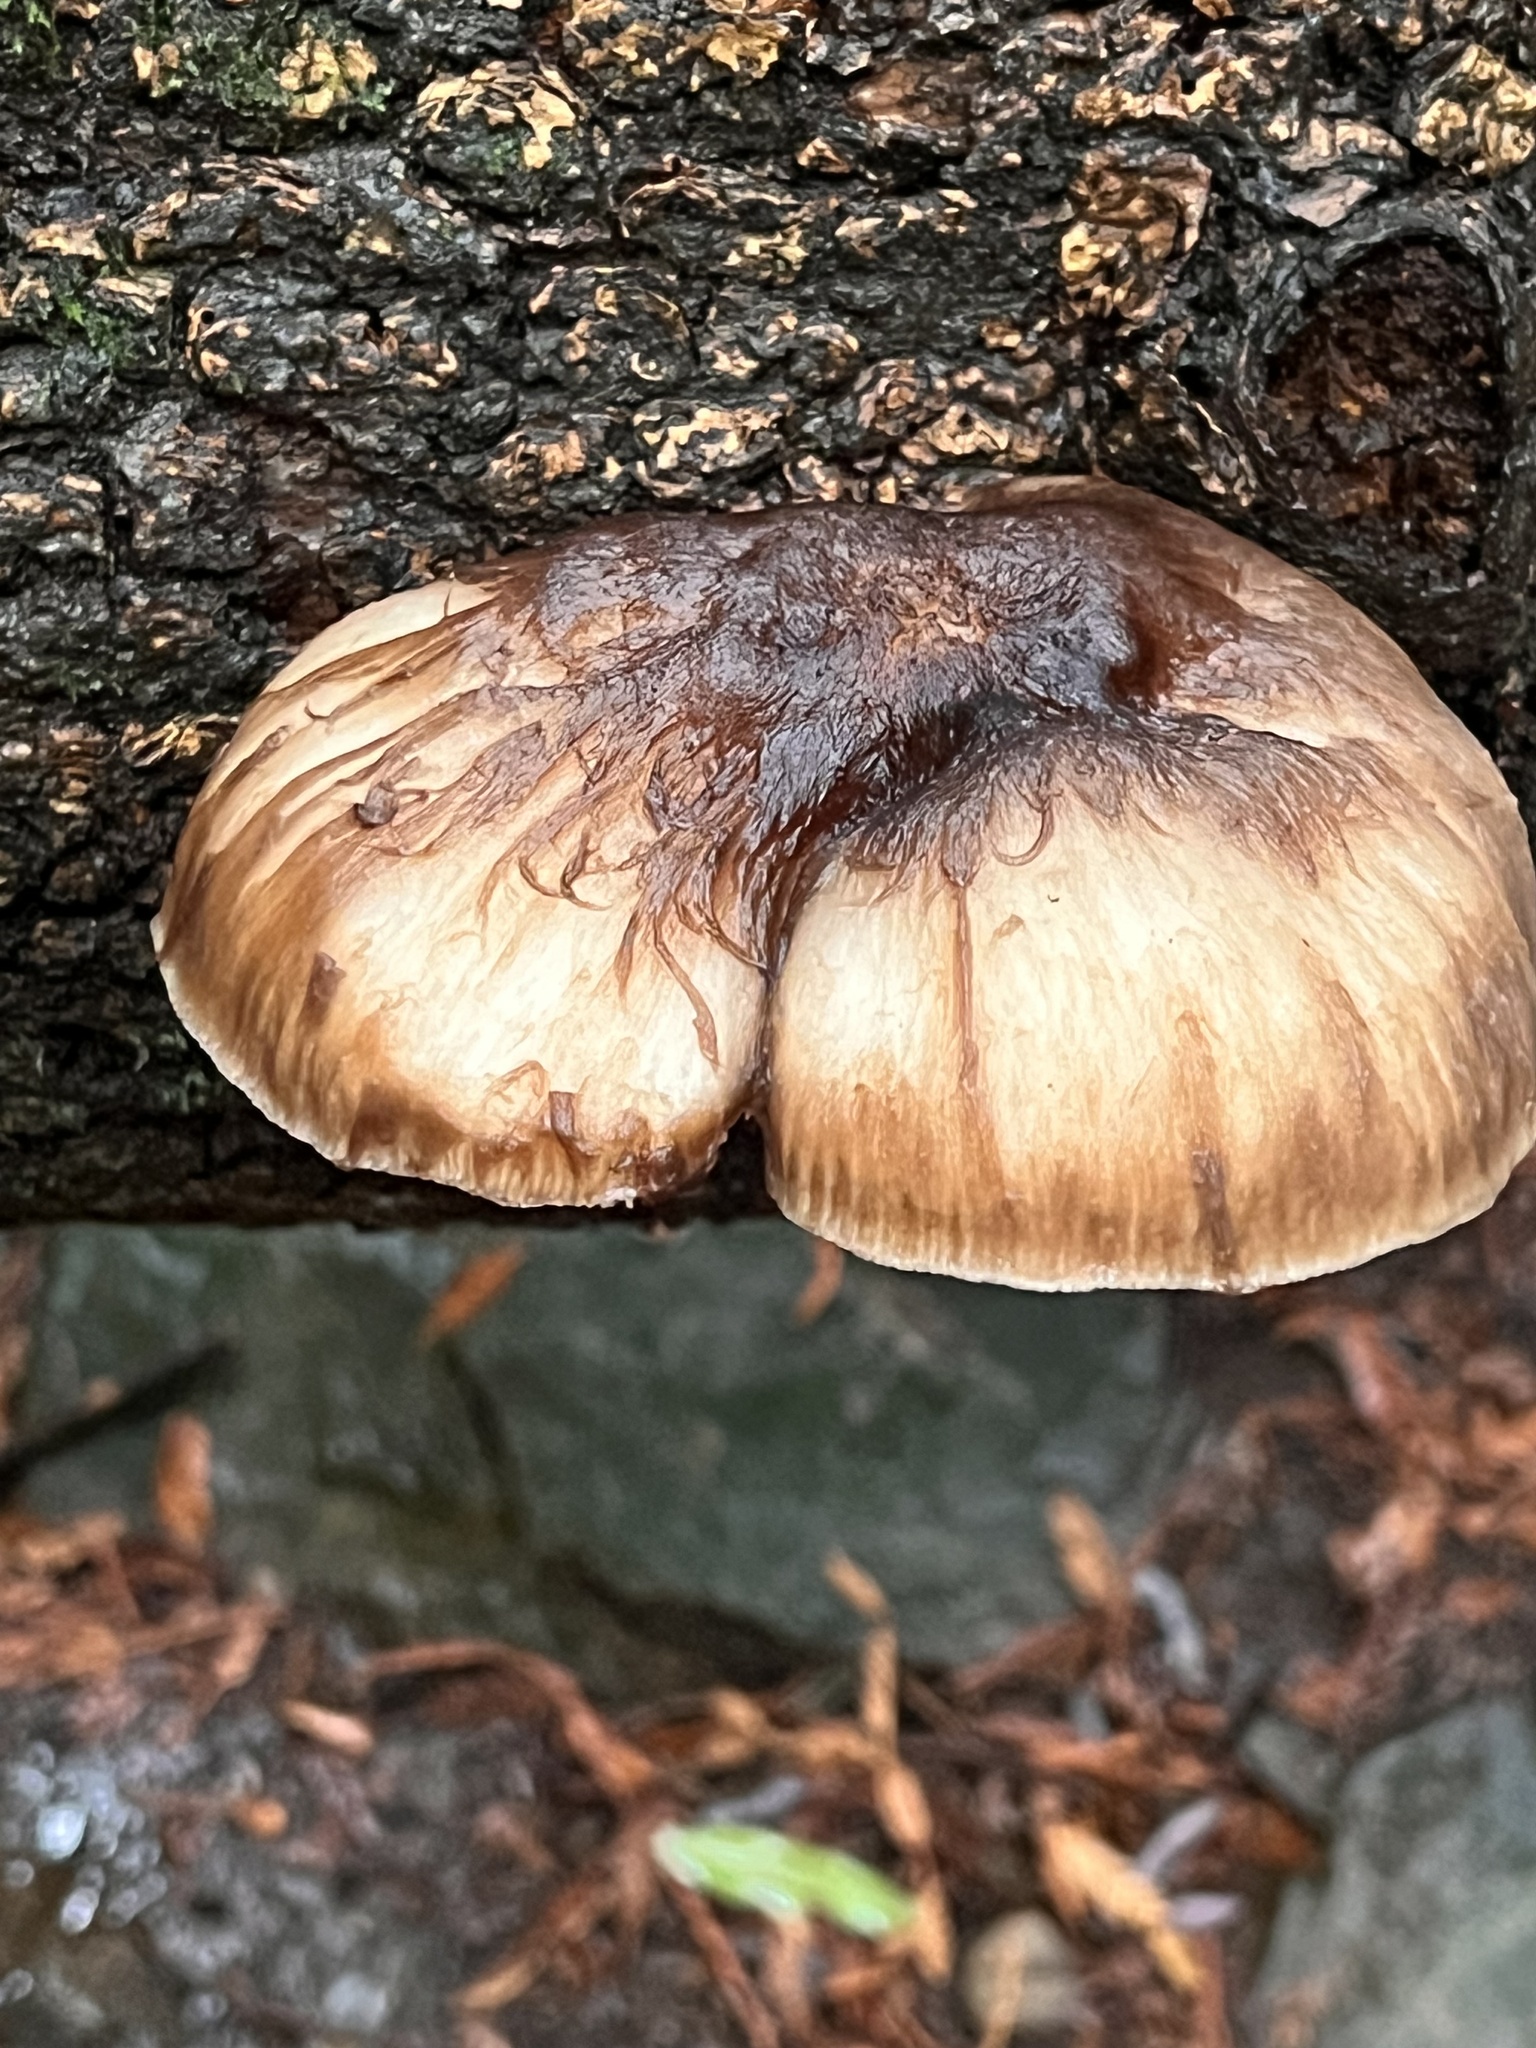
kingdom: Fungi
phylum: Basidiomycota
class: Agaricomycetes
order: Agaricales
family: Pluteaceae
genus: Pluteus
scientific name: Pluteus exilis
